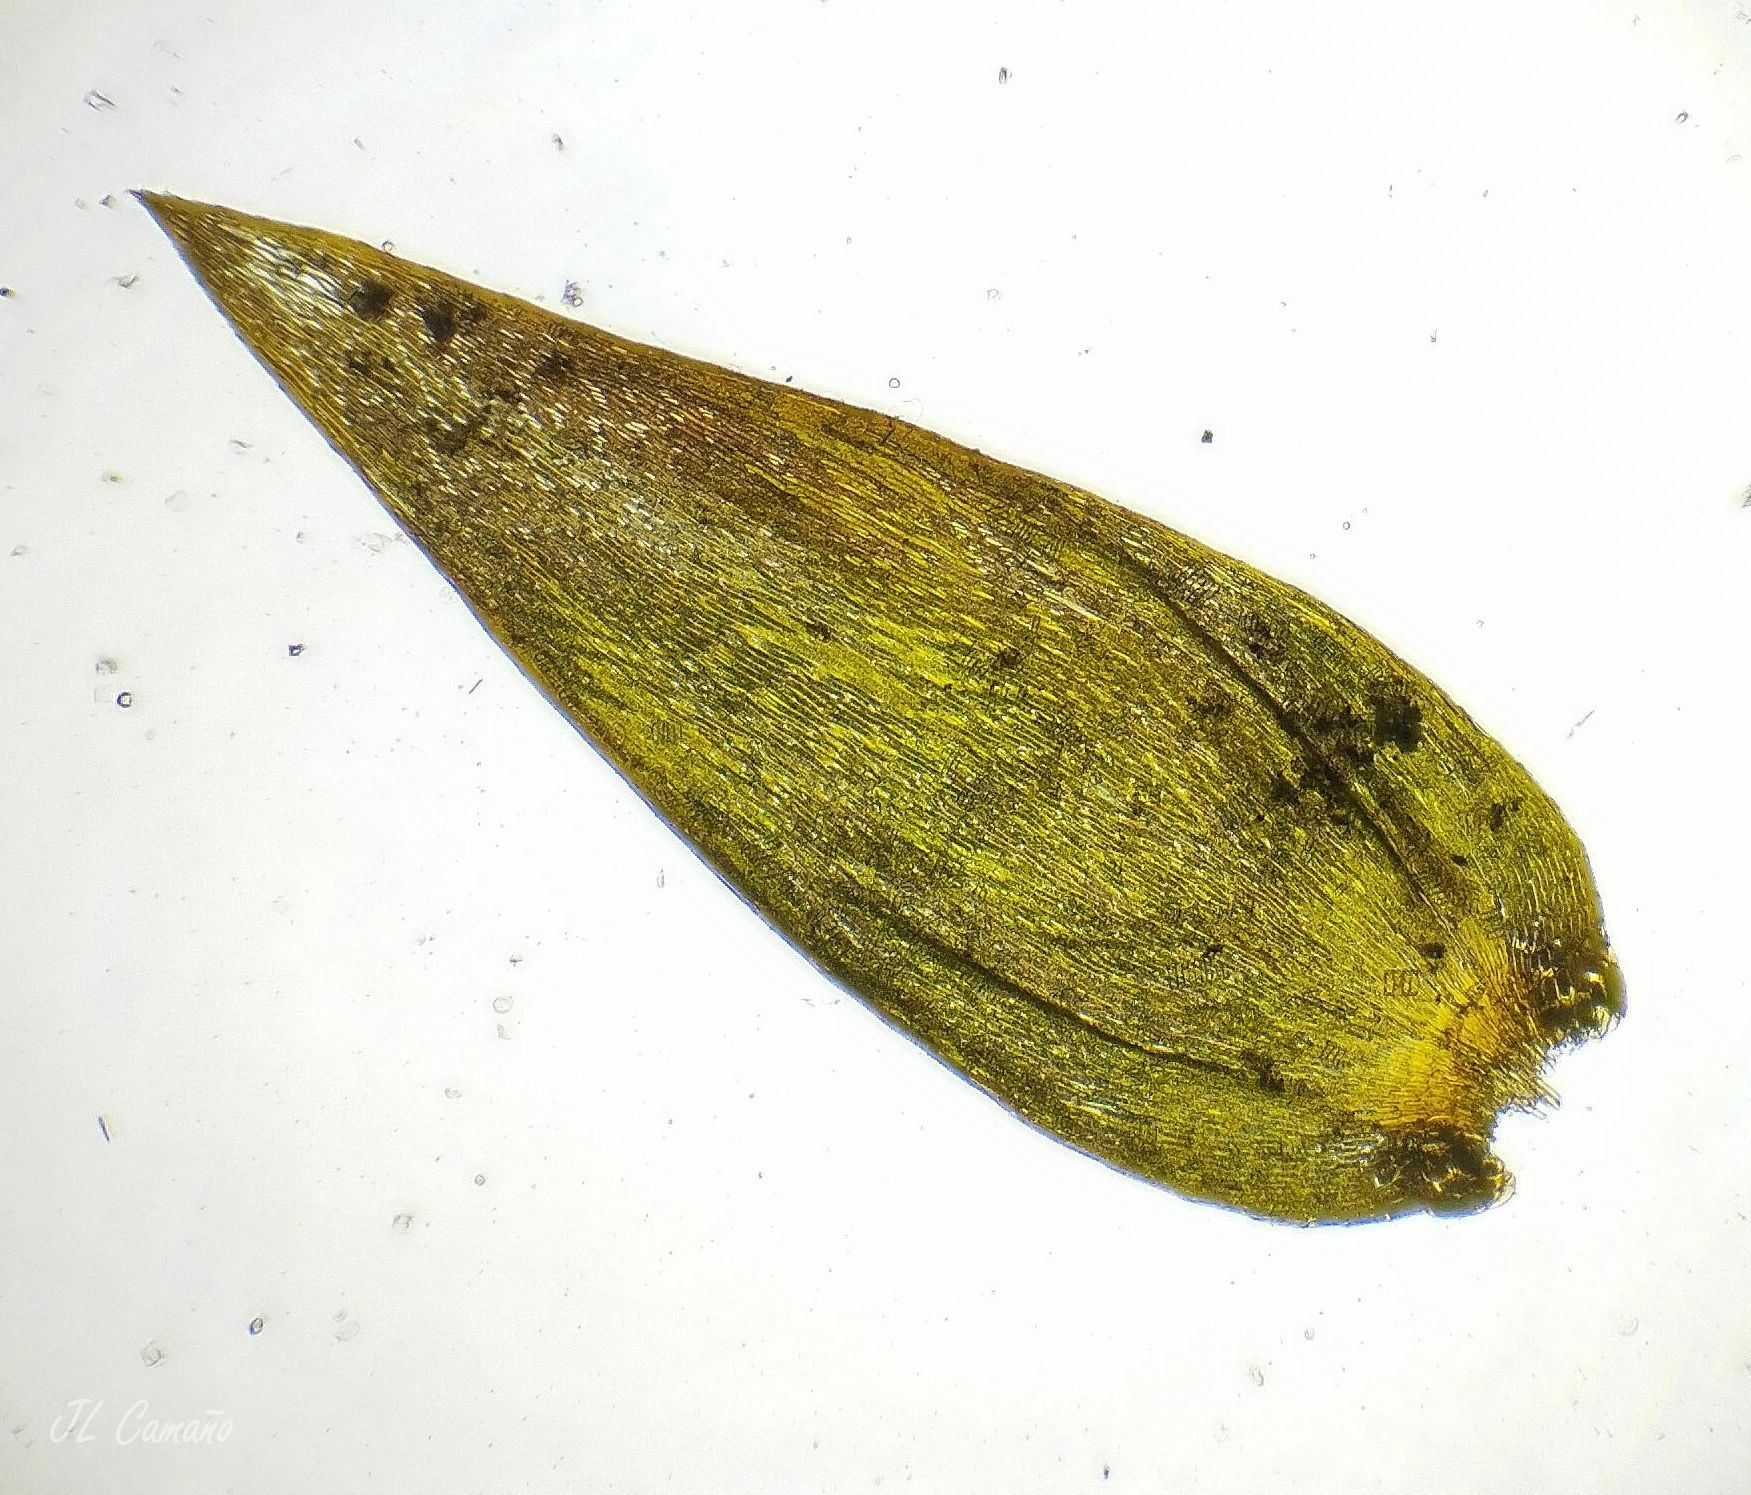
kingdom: Plantae
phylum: Bryophyta
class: Bryopsida
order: Hypnales
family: Fontinalaceae
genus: Fontinalis
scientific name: Fontinalis squamosa
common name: Alpine water-moss
